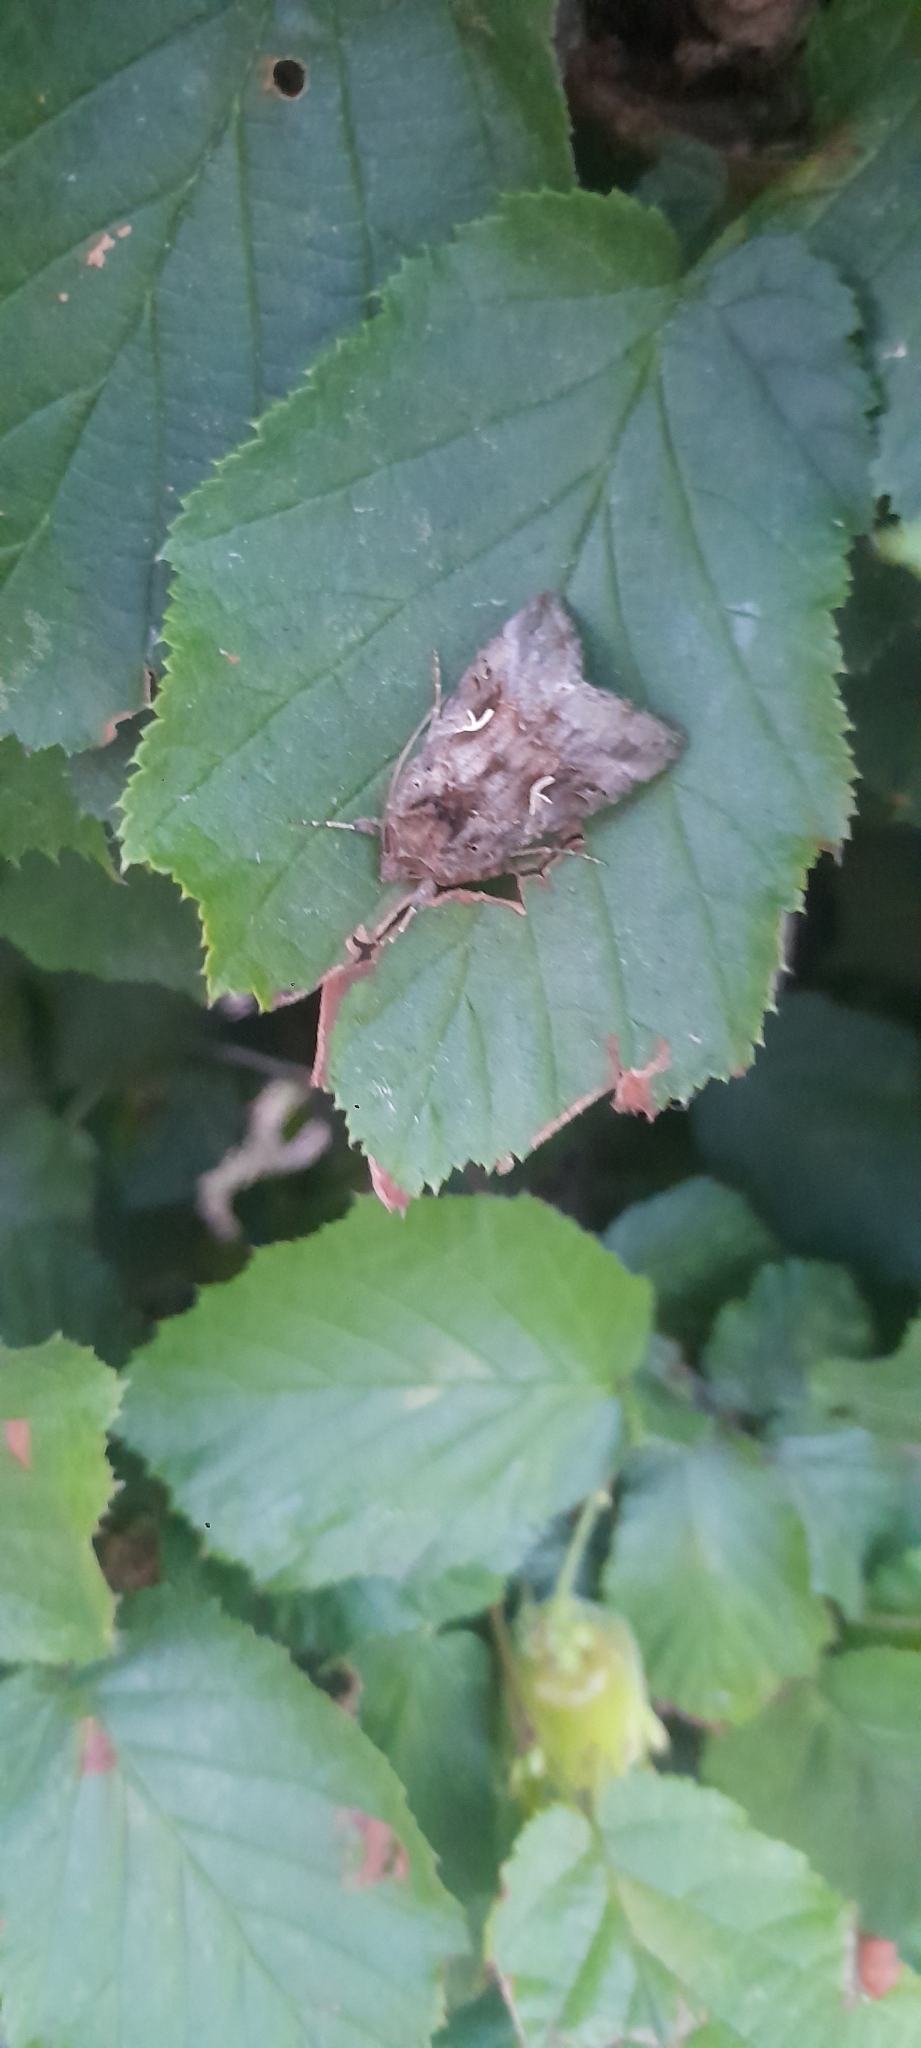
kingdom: Animalia
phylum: Arthropoda
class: Insecta
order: Lepidoptera
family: Noctuidae
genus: Autographa
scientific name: Autographa gamma
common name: Silver y
